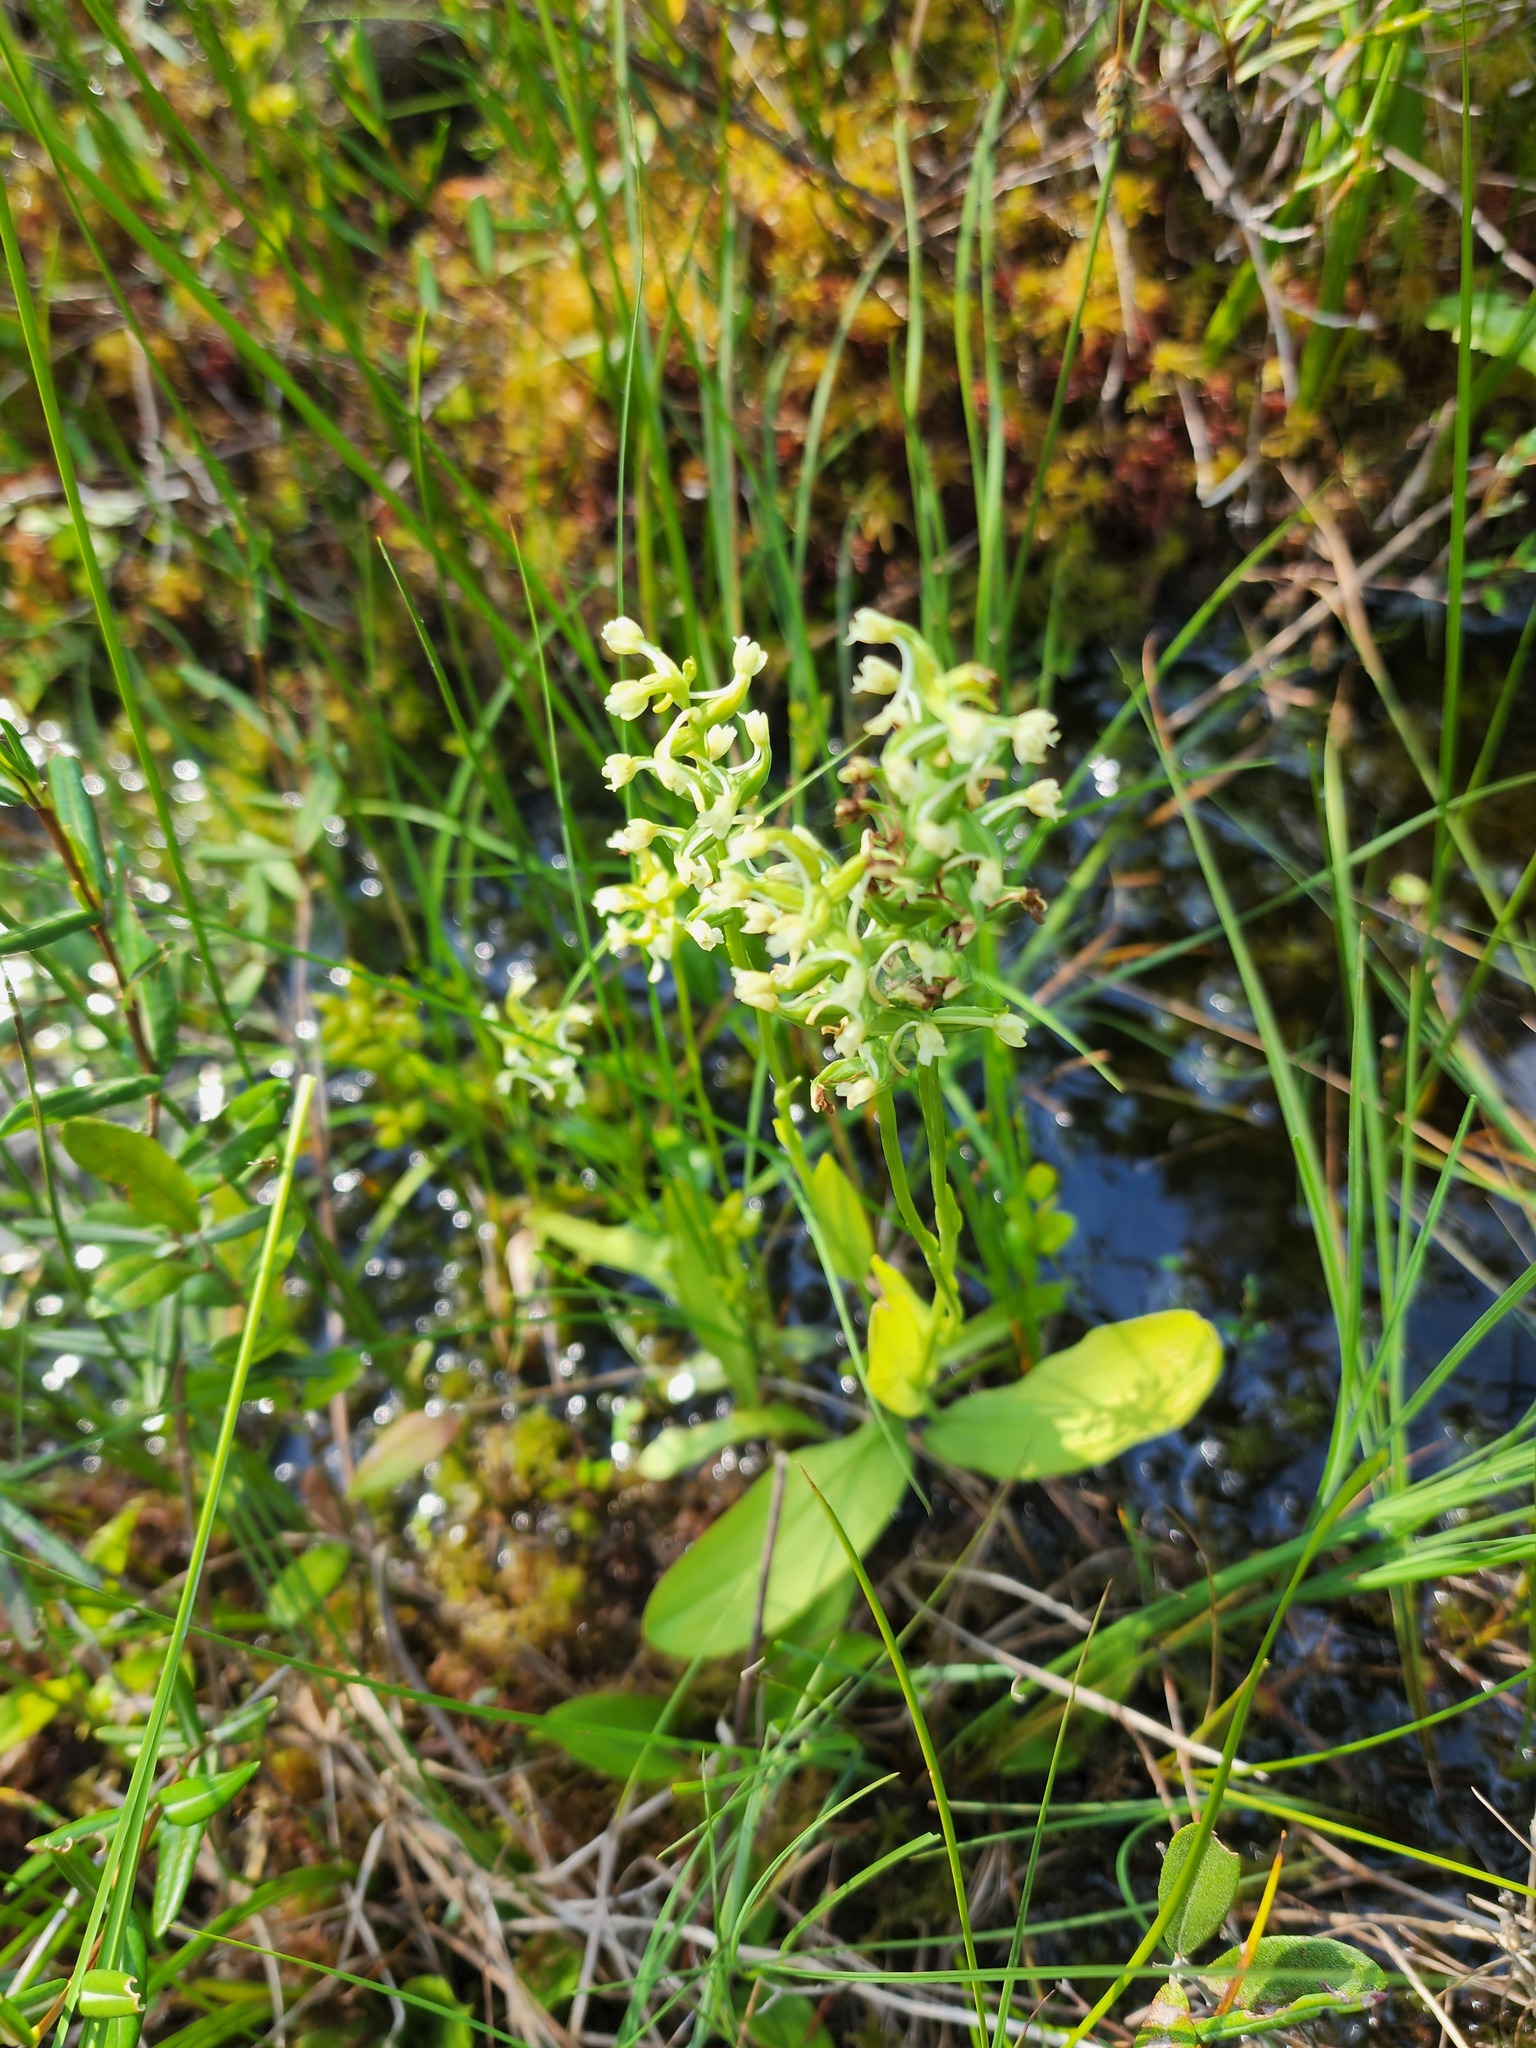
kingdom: Plantae
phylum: Tracheophyta
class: Liliopsida
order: Asparagales
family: Orchidaceae
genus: Platanthera
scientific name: Platanthera clavellata
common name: Club-spur orchid
